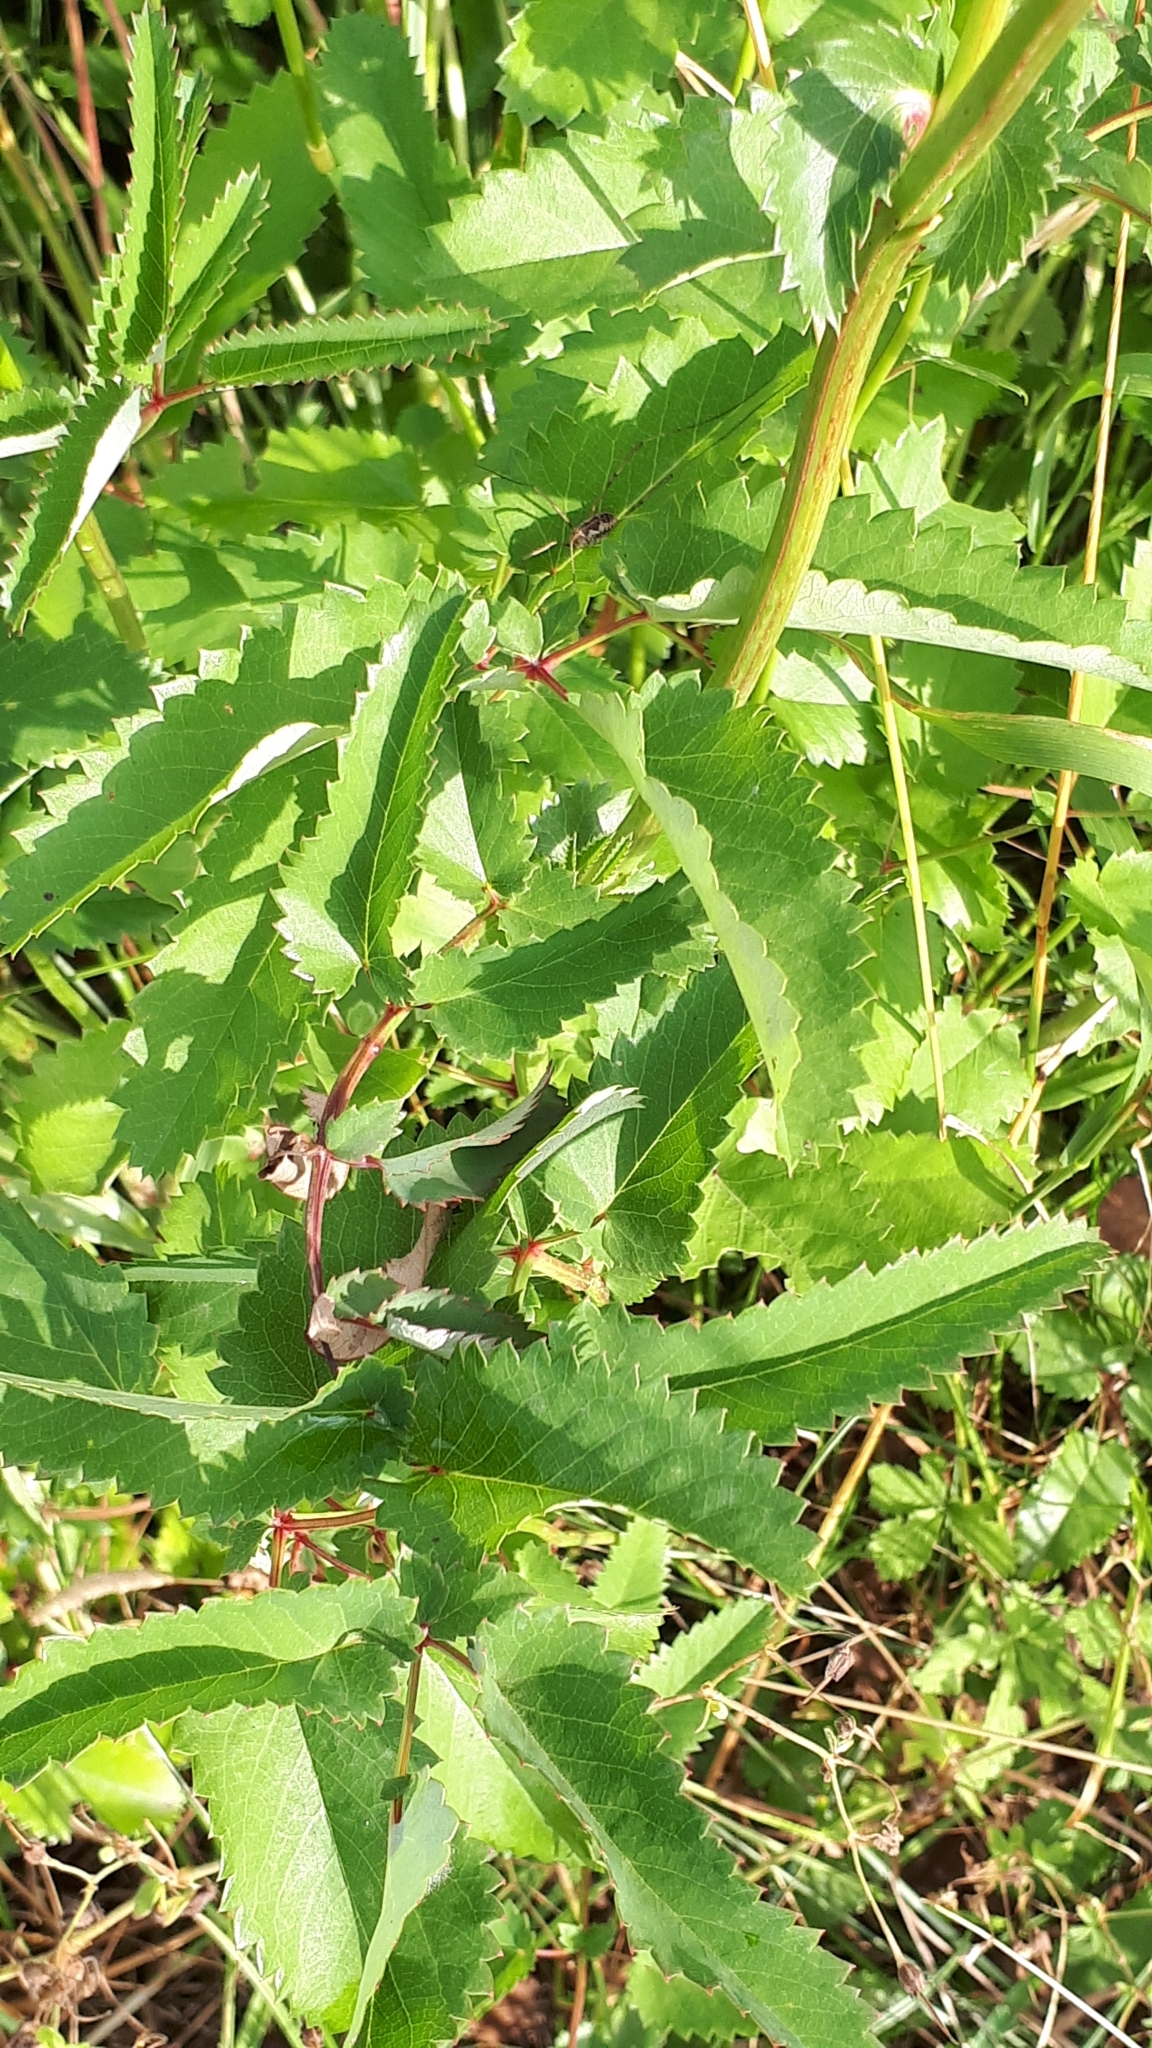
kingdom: Plantae
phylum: Tracheophyta
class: Magnoliopsida
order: Rosales
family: Rosaceae
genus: Sanguisorba
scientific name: Sanguisorba officinalis
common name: Great burnet
